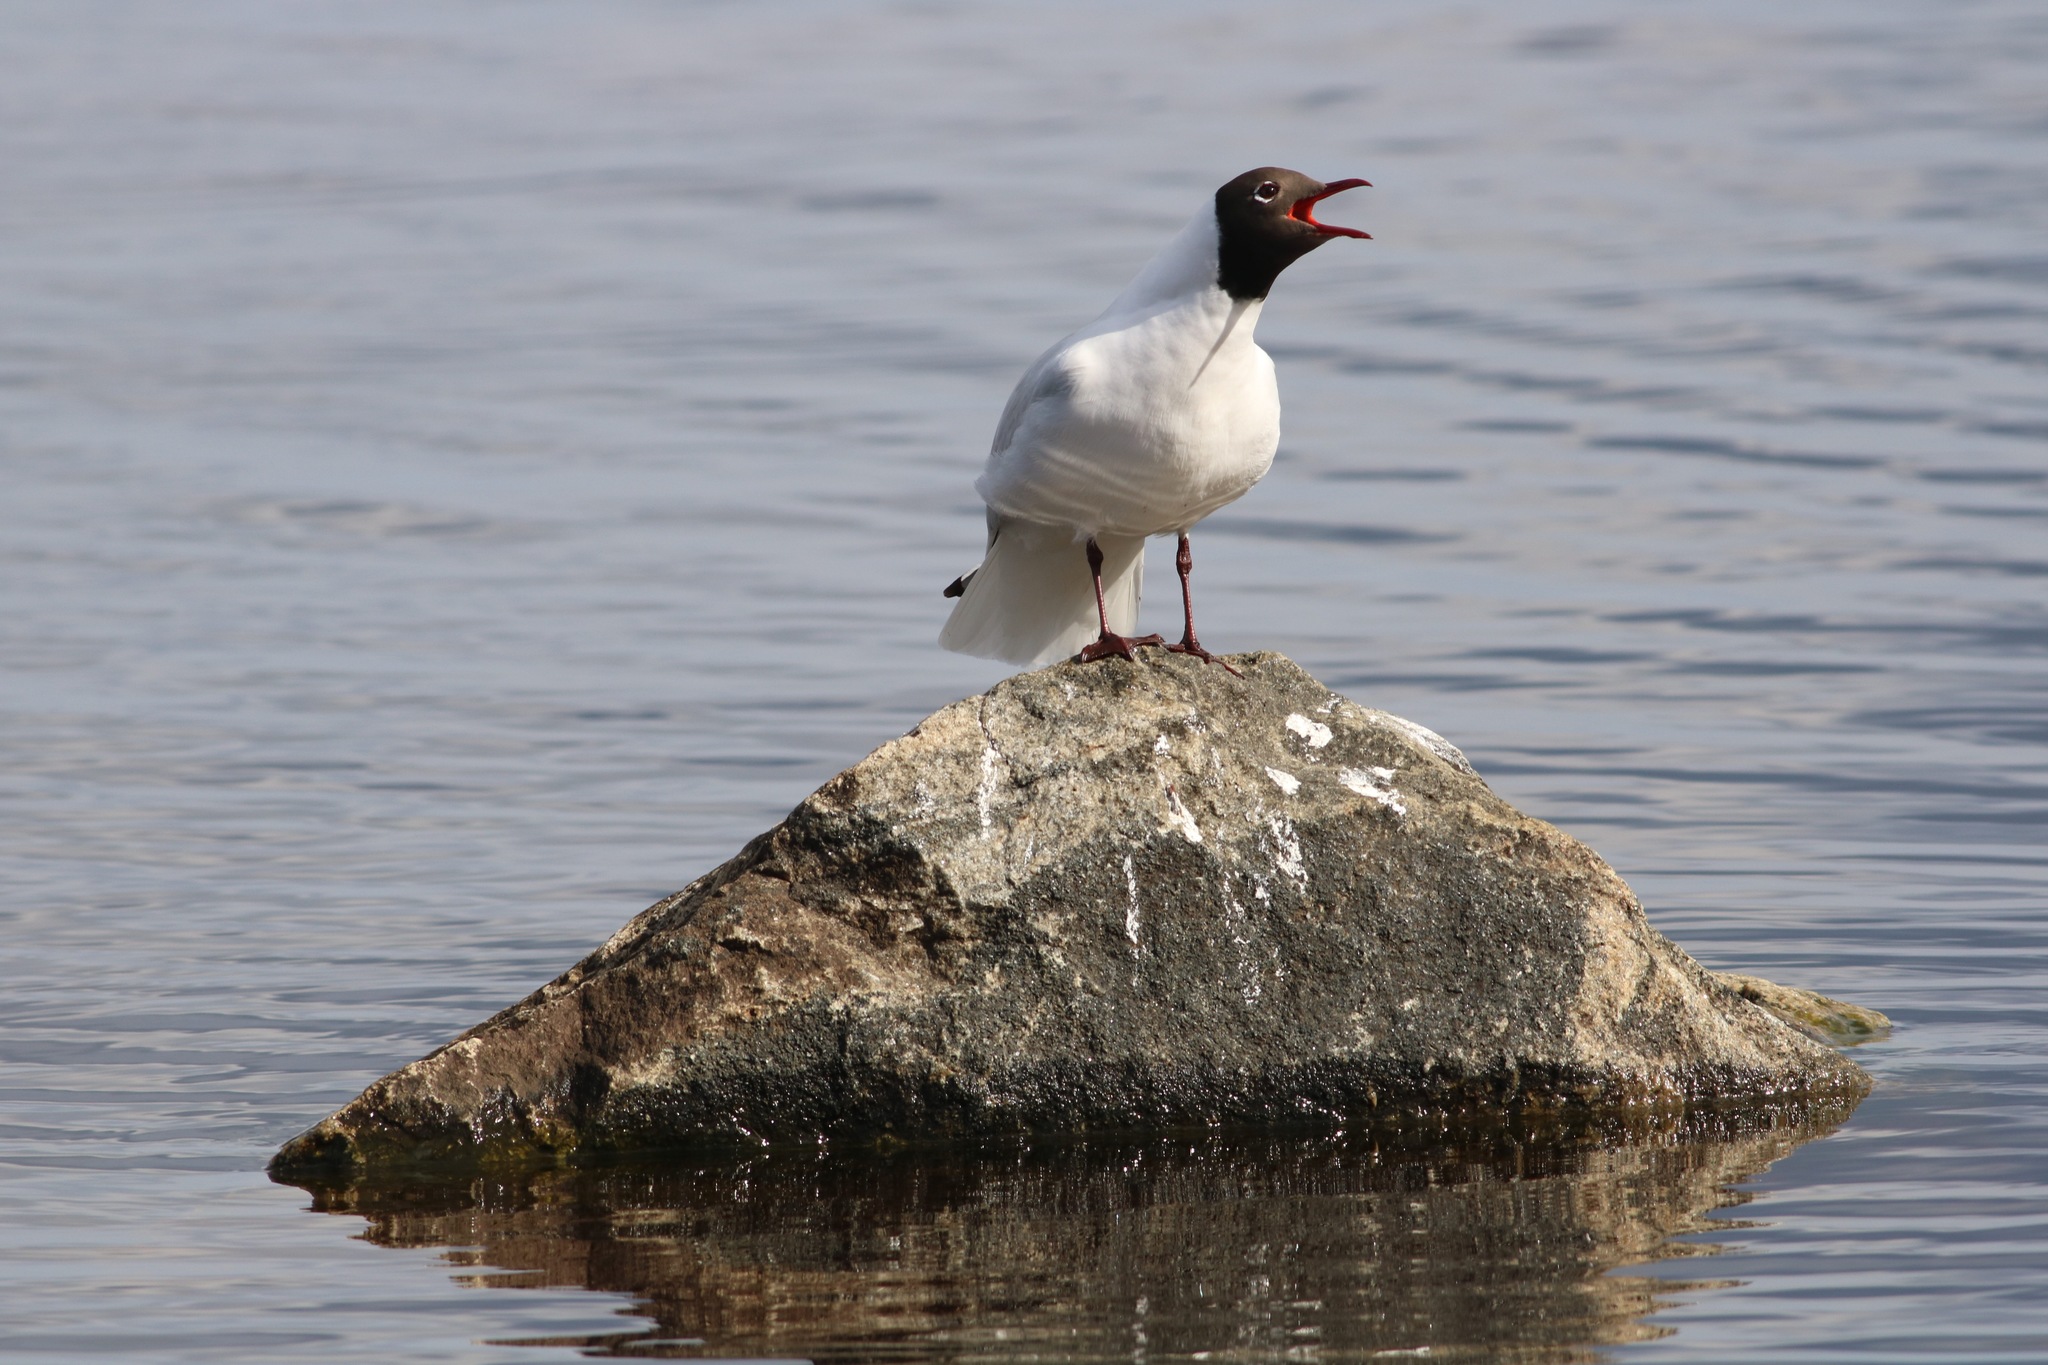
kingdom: Animalia
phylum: Chordata
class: Aves
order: Charadriiformes
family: Laridae
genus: Chroicocephalus
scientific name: Chroicocephalus ridibundus
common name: Black-headed gull
